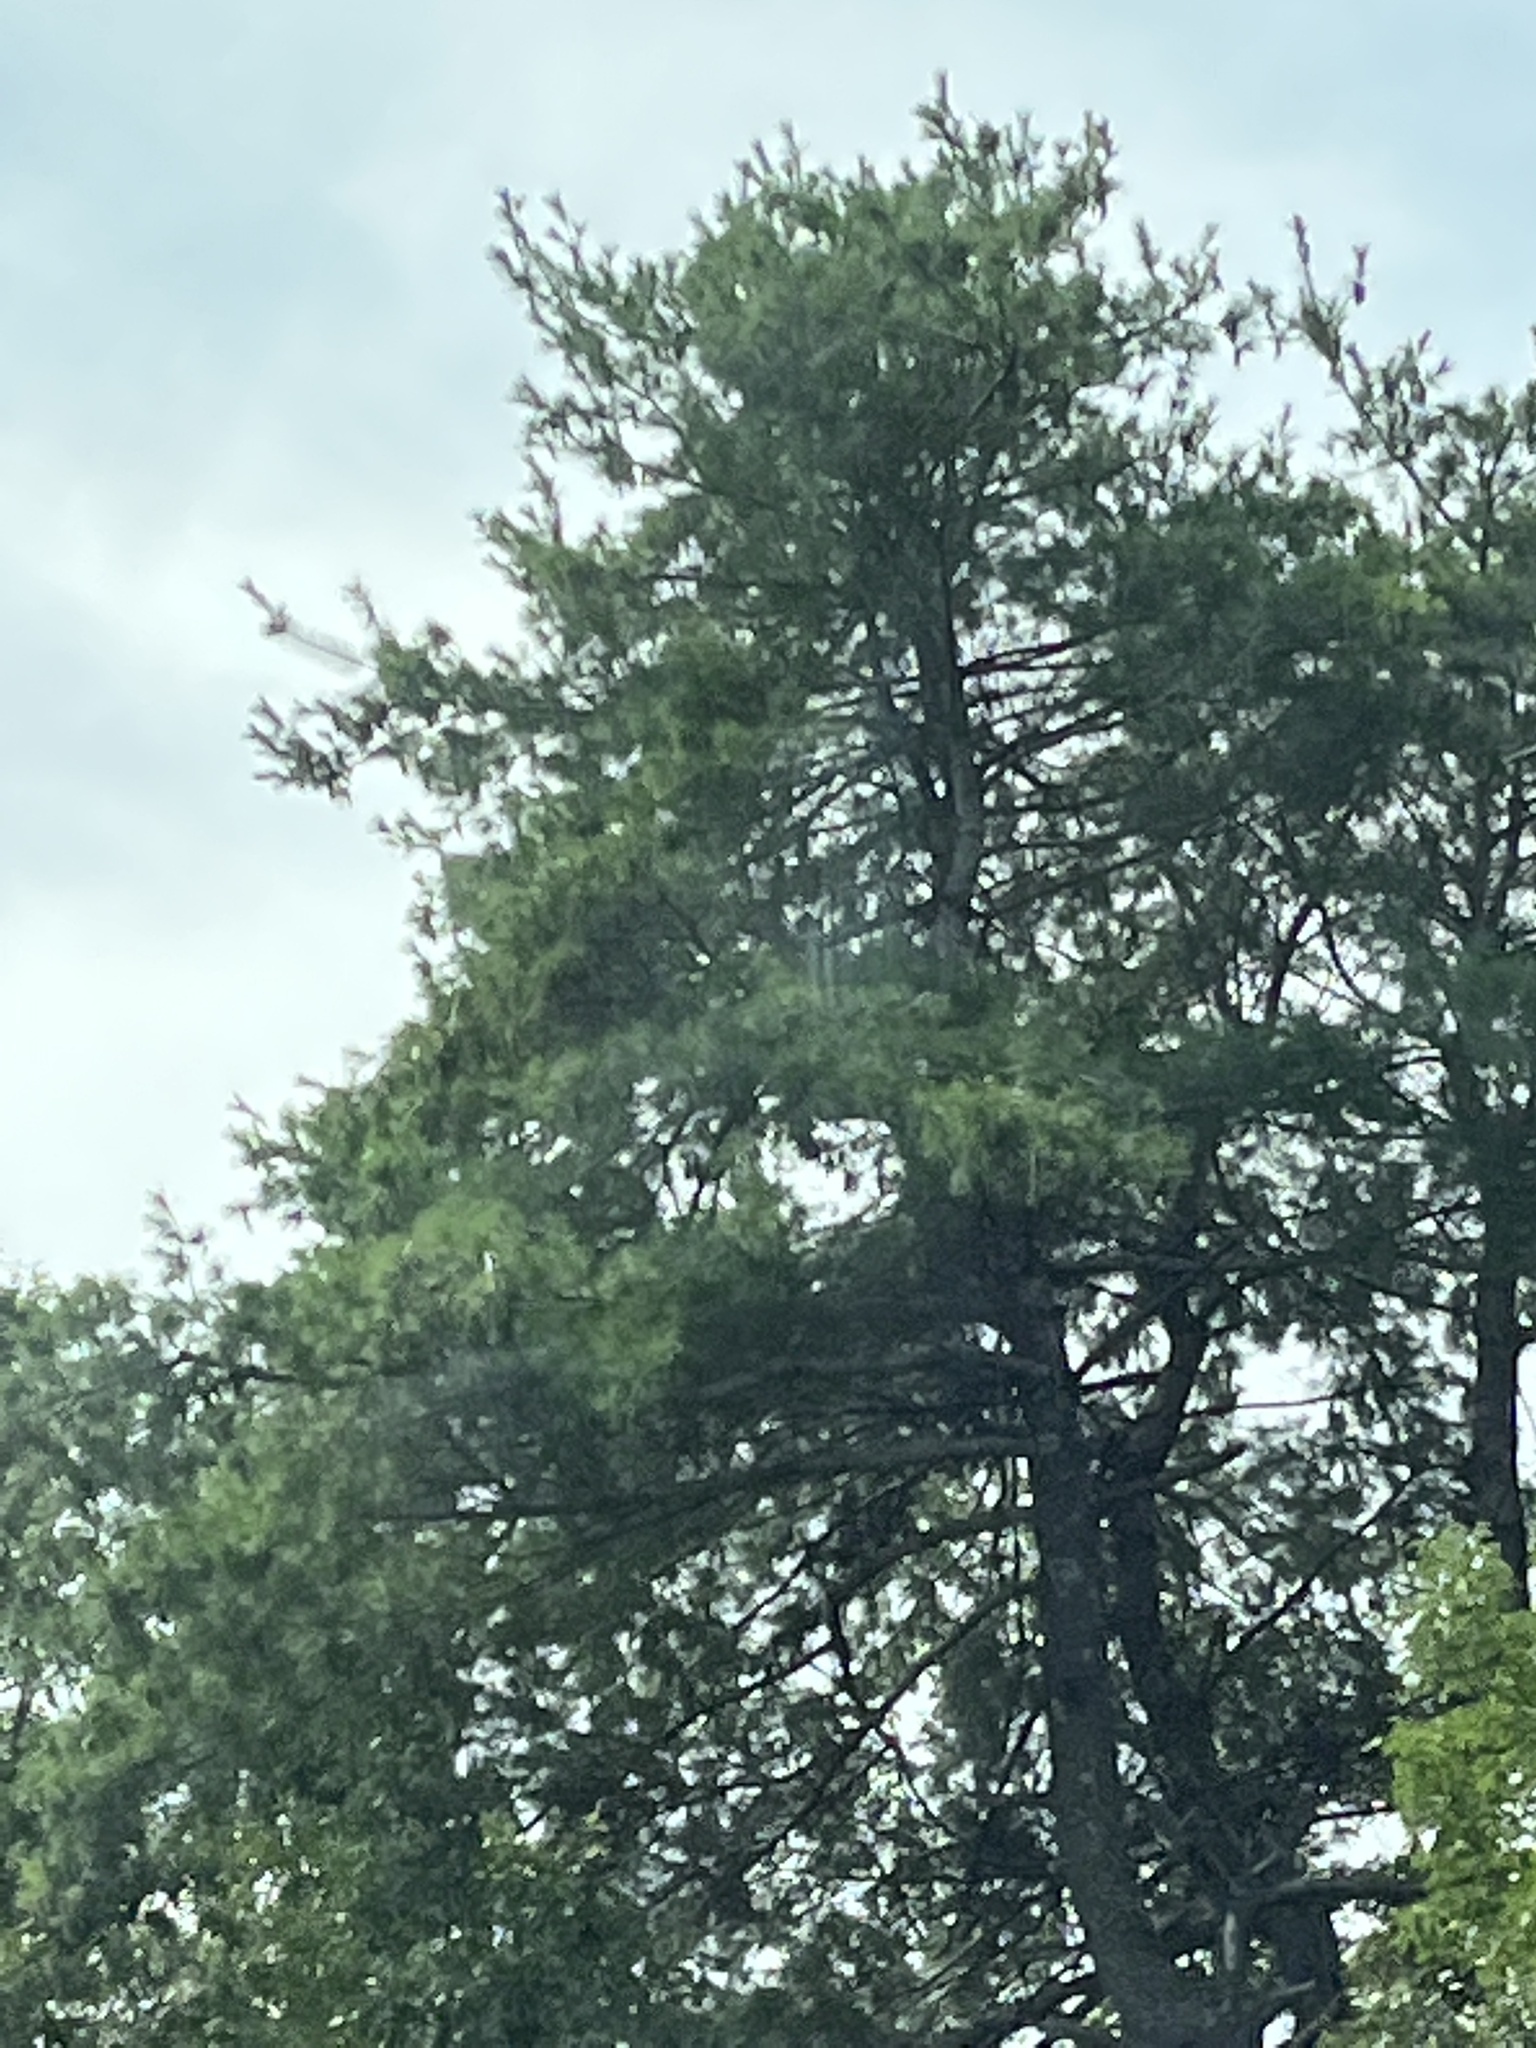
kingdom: Plantae
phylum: Tracheophyta
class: Pinopsida
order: Pinales
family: Pinaceae
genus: Pinus
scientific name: Pinus strobus
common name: Weymouth pine
